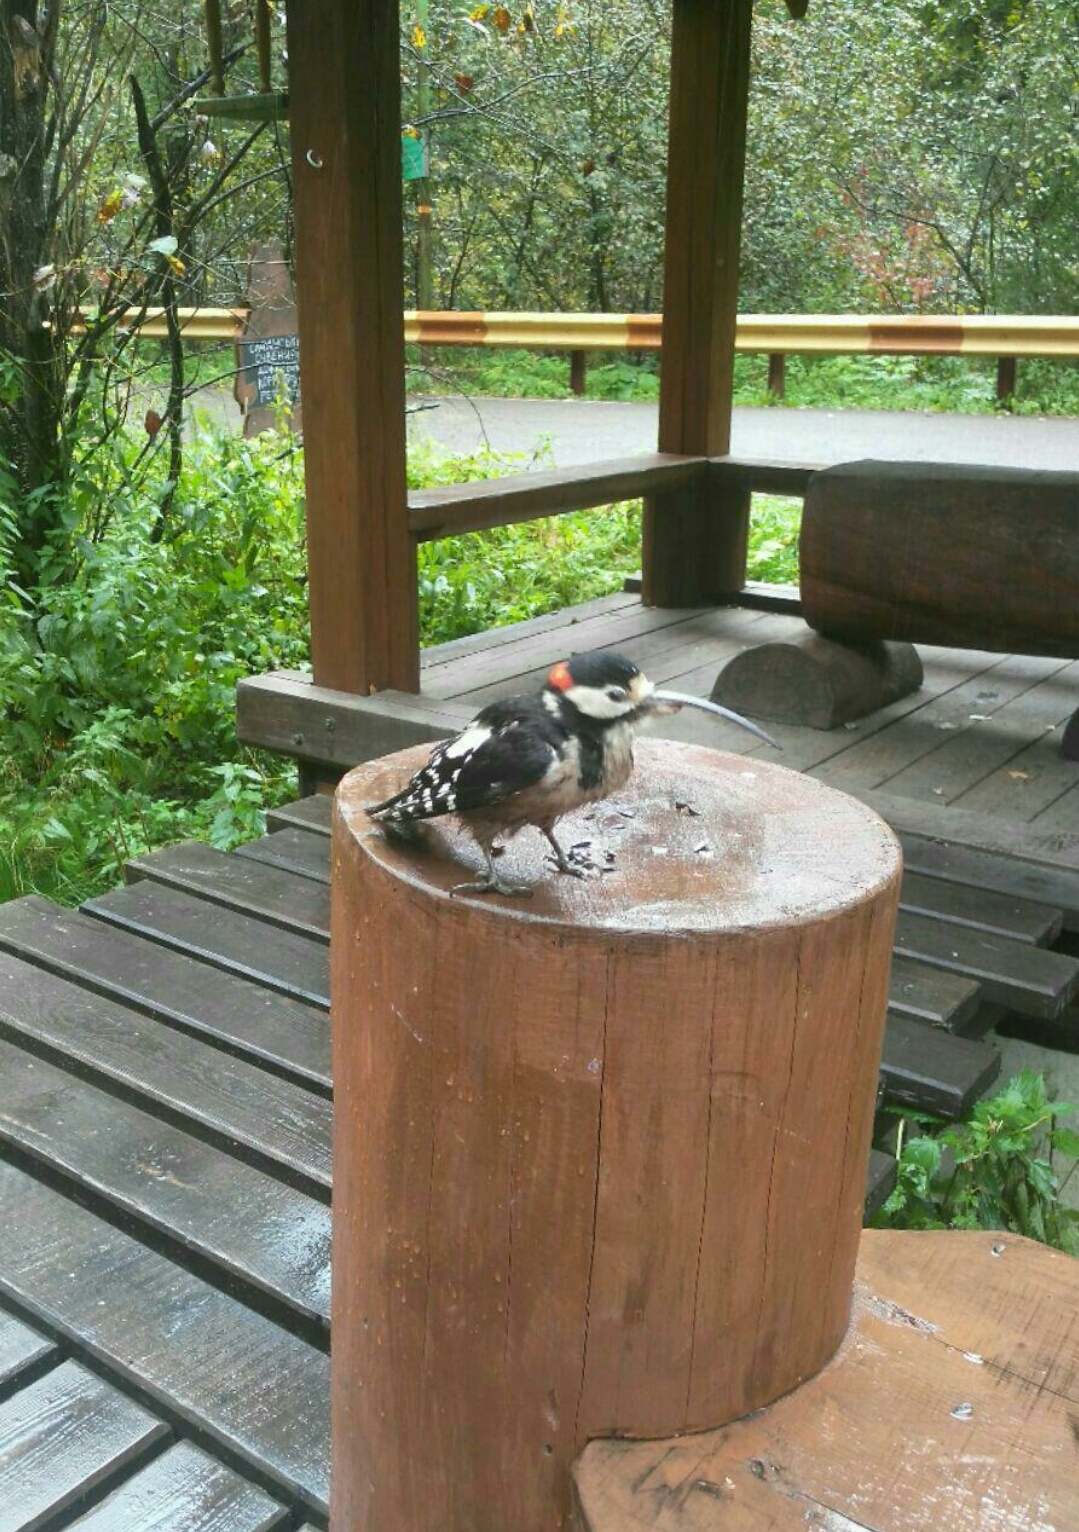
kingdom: Animalia
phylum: Chordata
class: Aves
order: Piciformes
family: Picidae
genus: Dendrocopos
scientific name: Dendrocopos major
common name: Great spotted woodpecker
